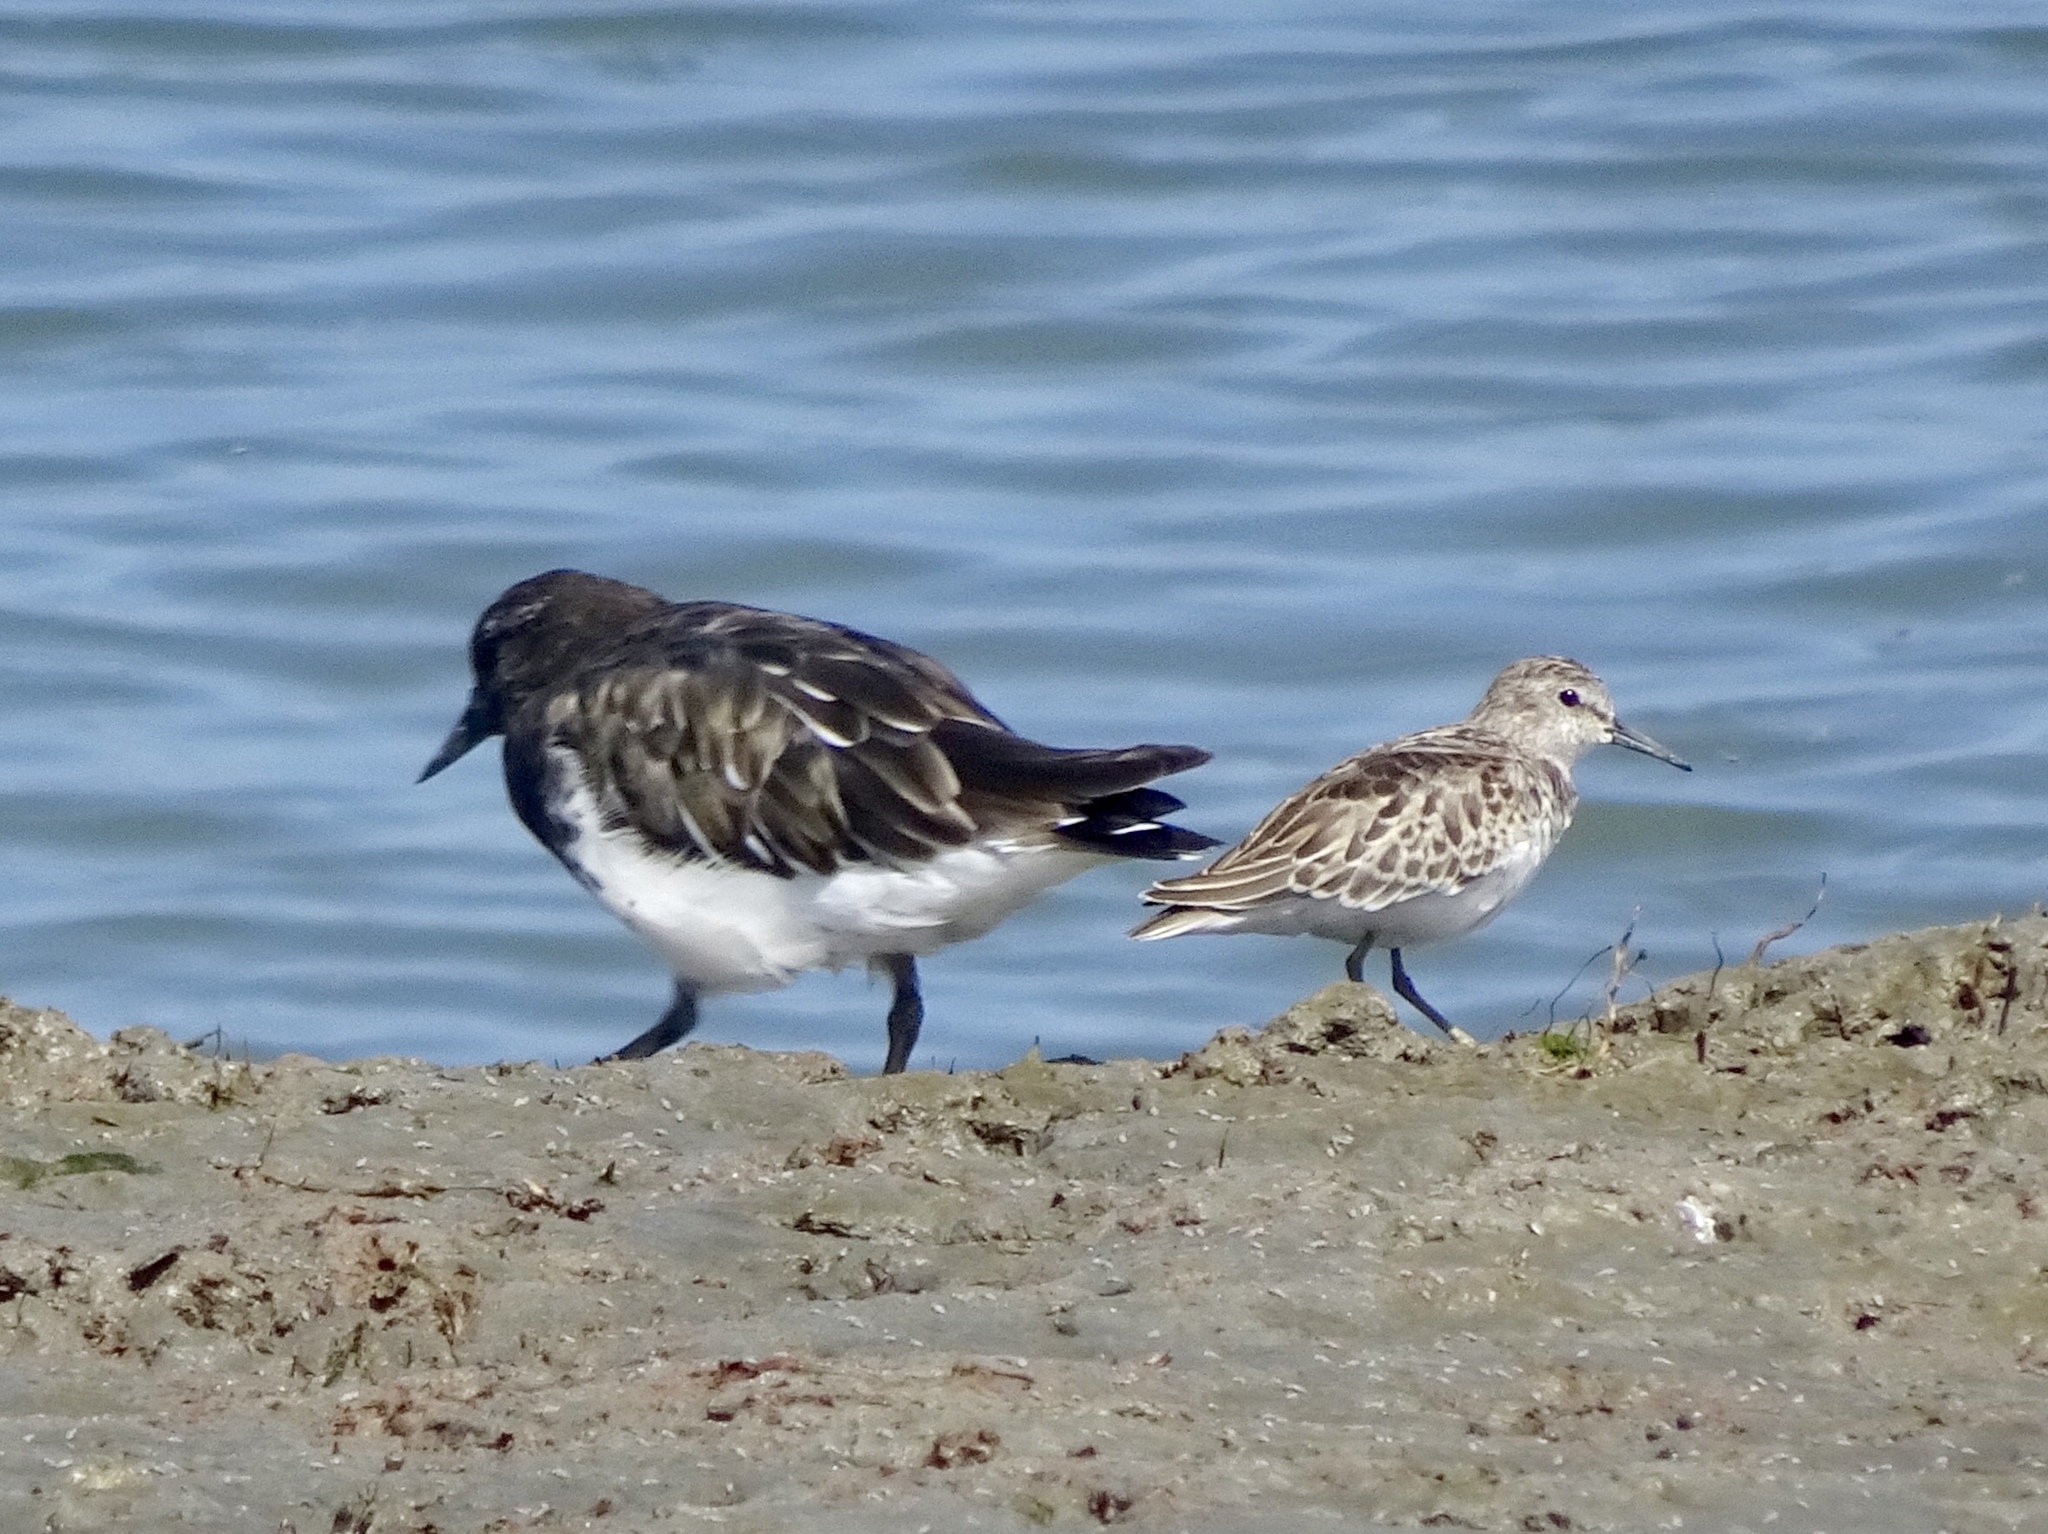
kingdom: Animalia
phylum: Chordata
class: Aves
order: Charadriiformes
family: Scolopacidae
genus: Arenaria
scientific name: Arenaria melanocephala
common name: Black turnstone
